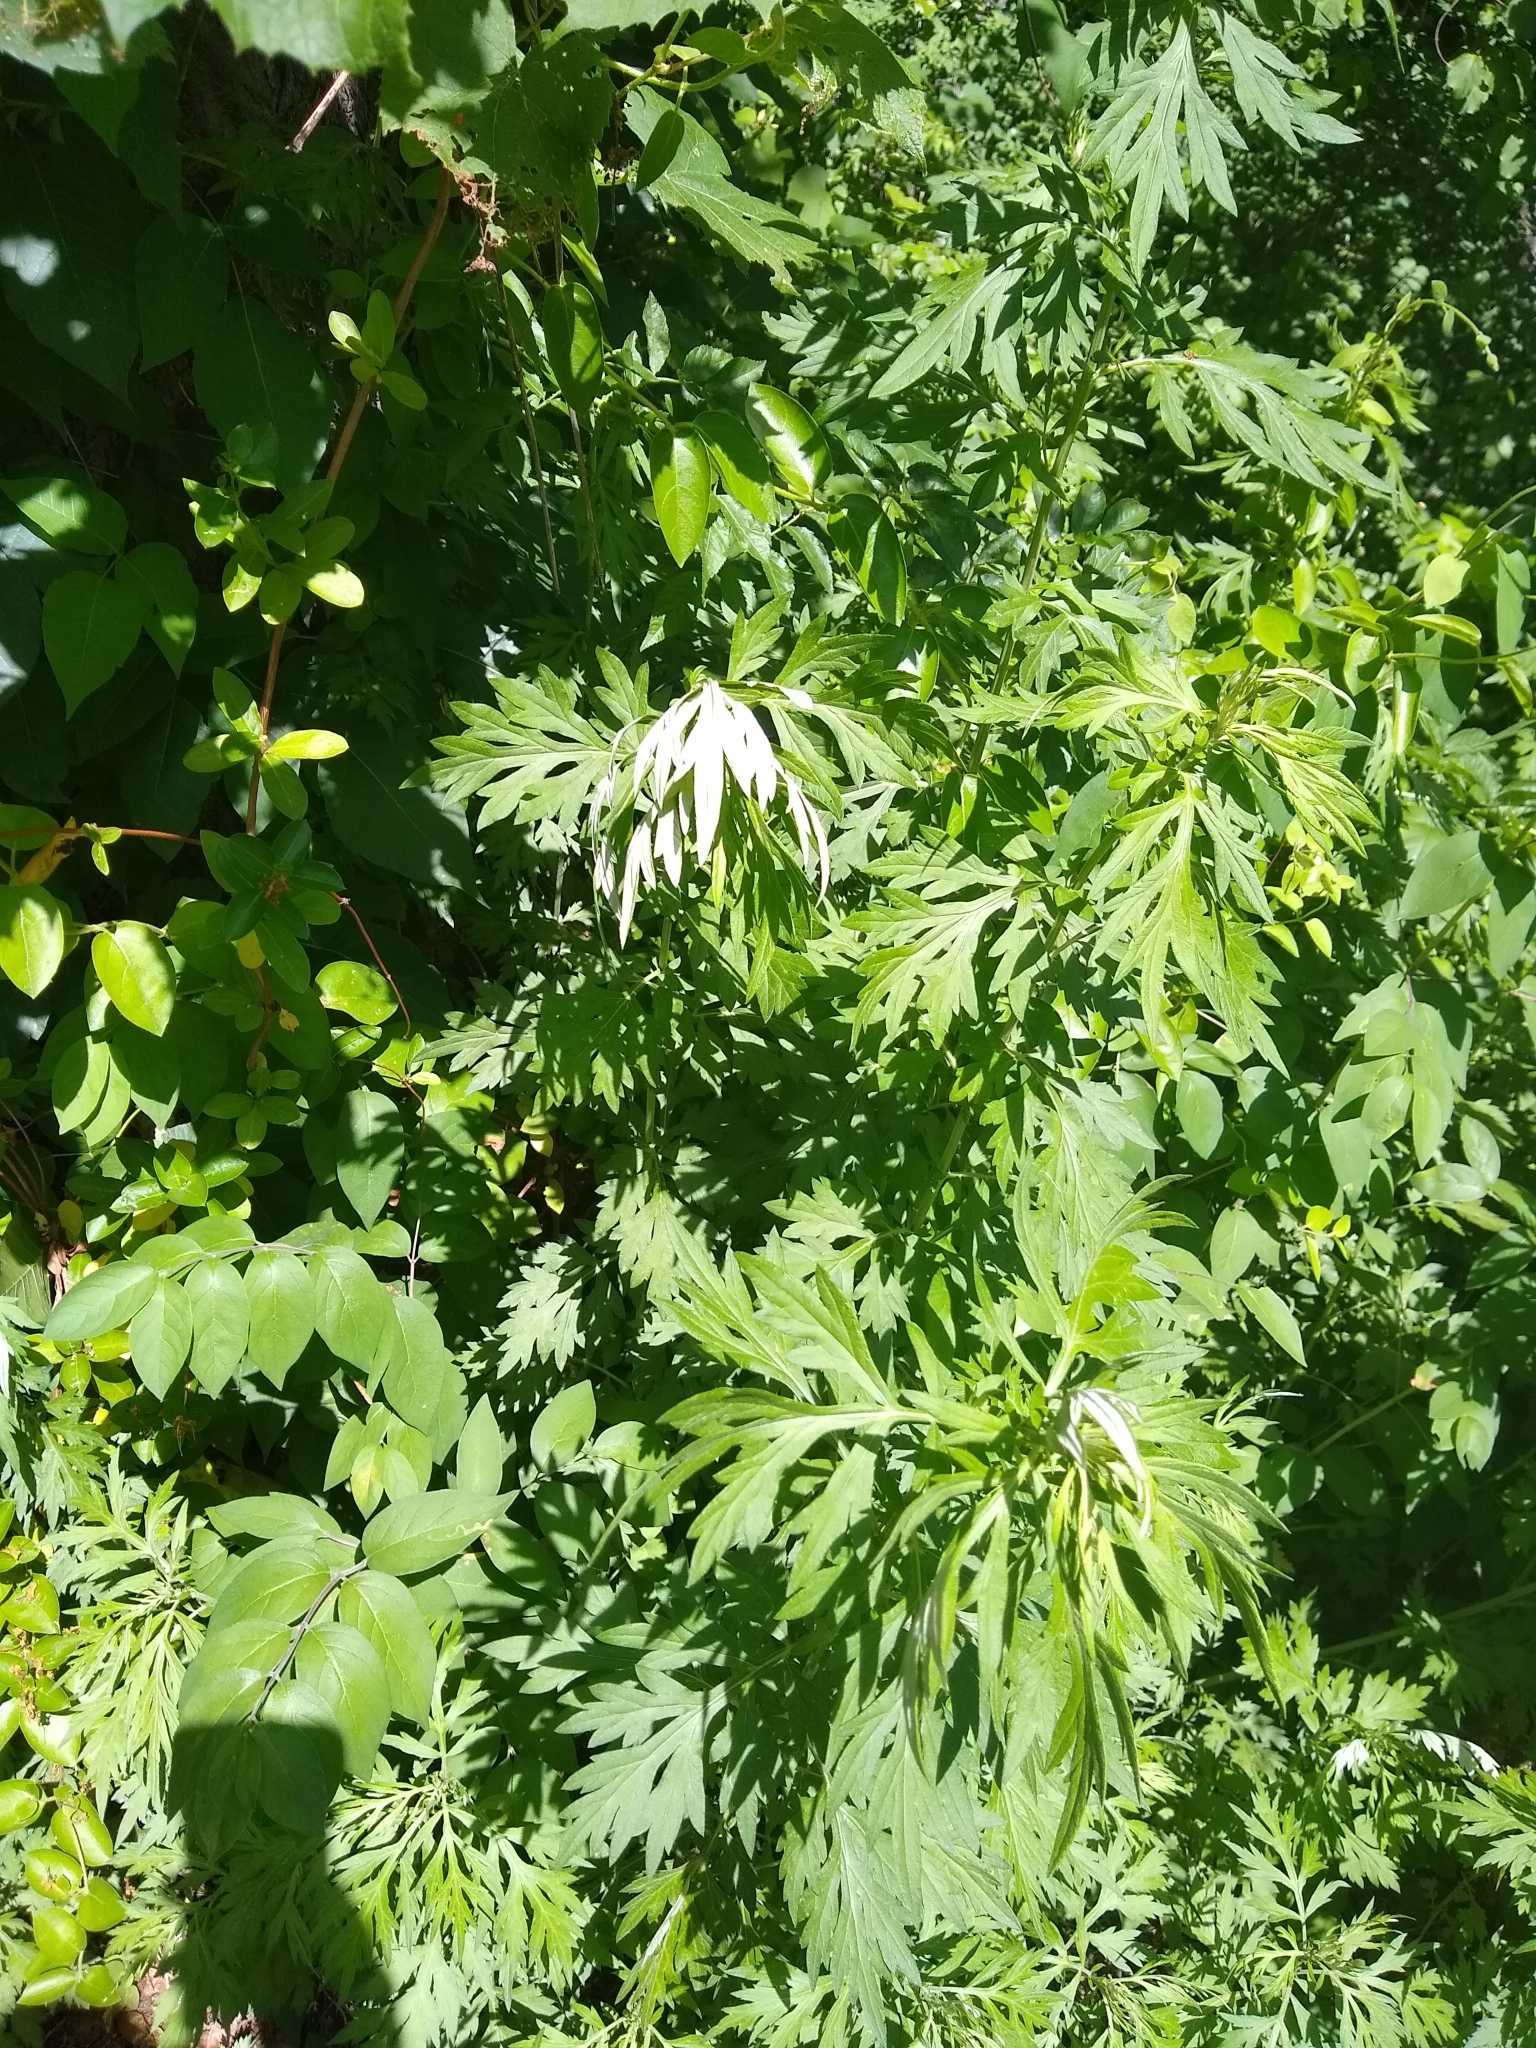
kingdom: Plantae
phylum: Tracheophyta
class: Magnoliopsida
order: Asterales
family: Asteraceae
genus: Artemisia
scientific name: Artemisia vulgaris
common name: Mugwort
